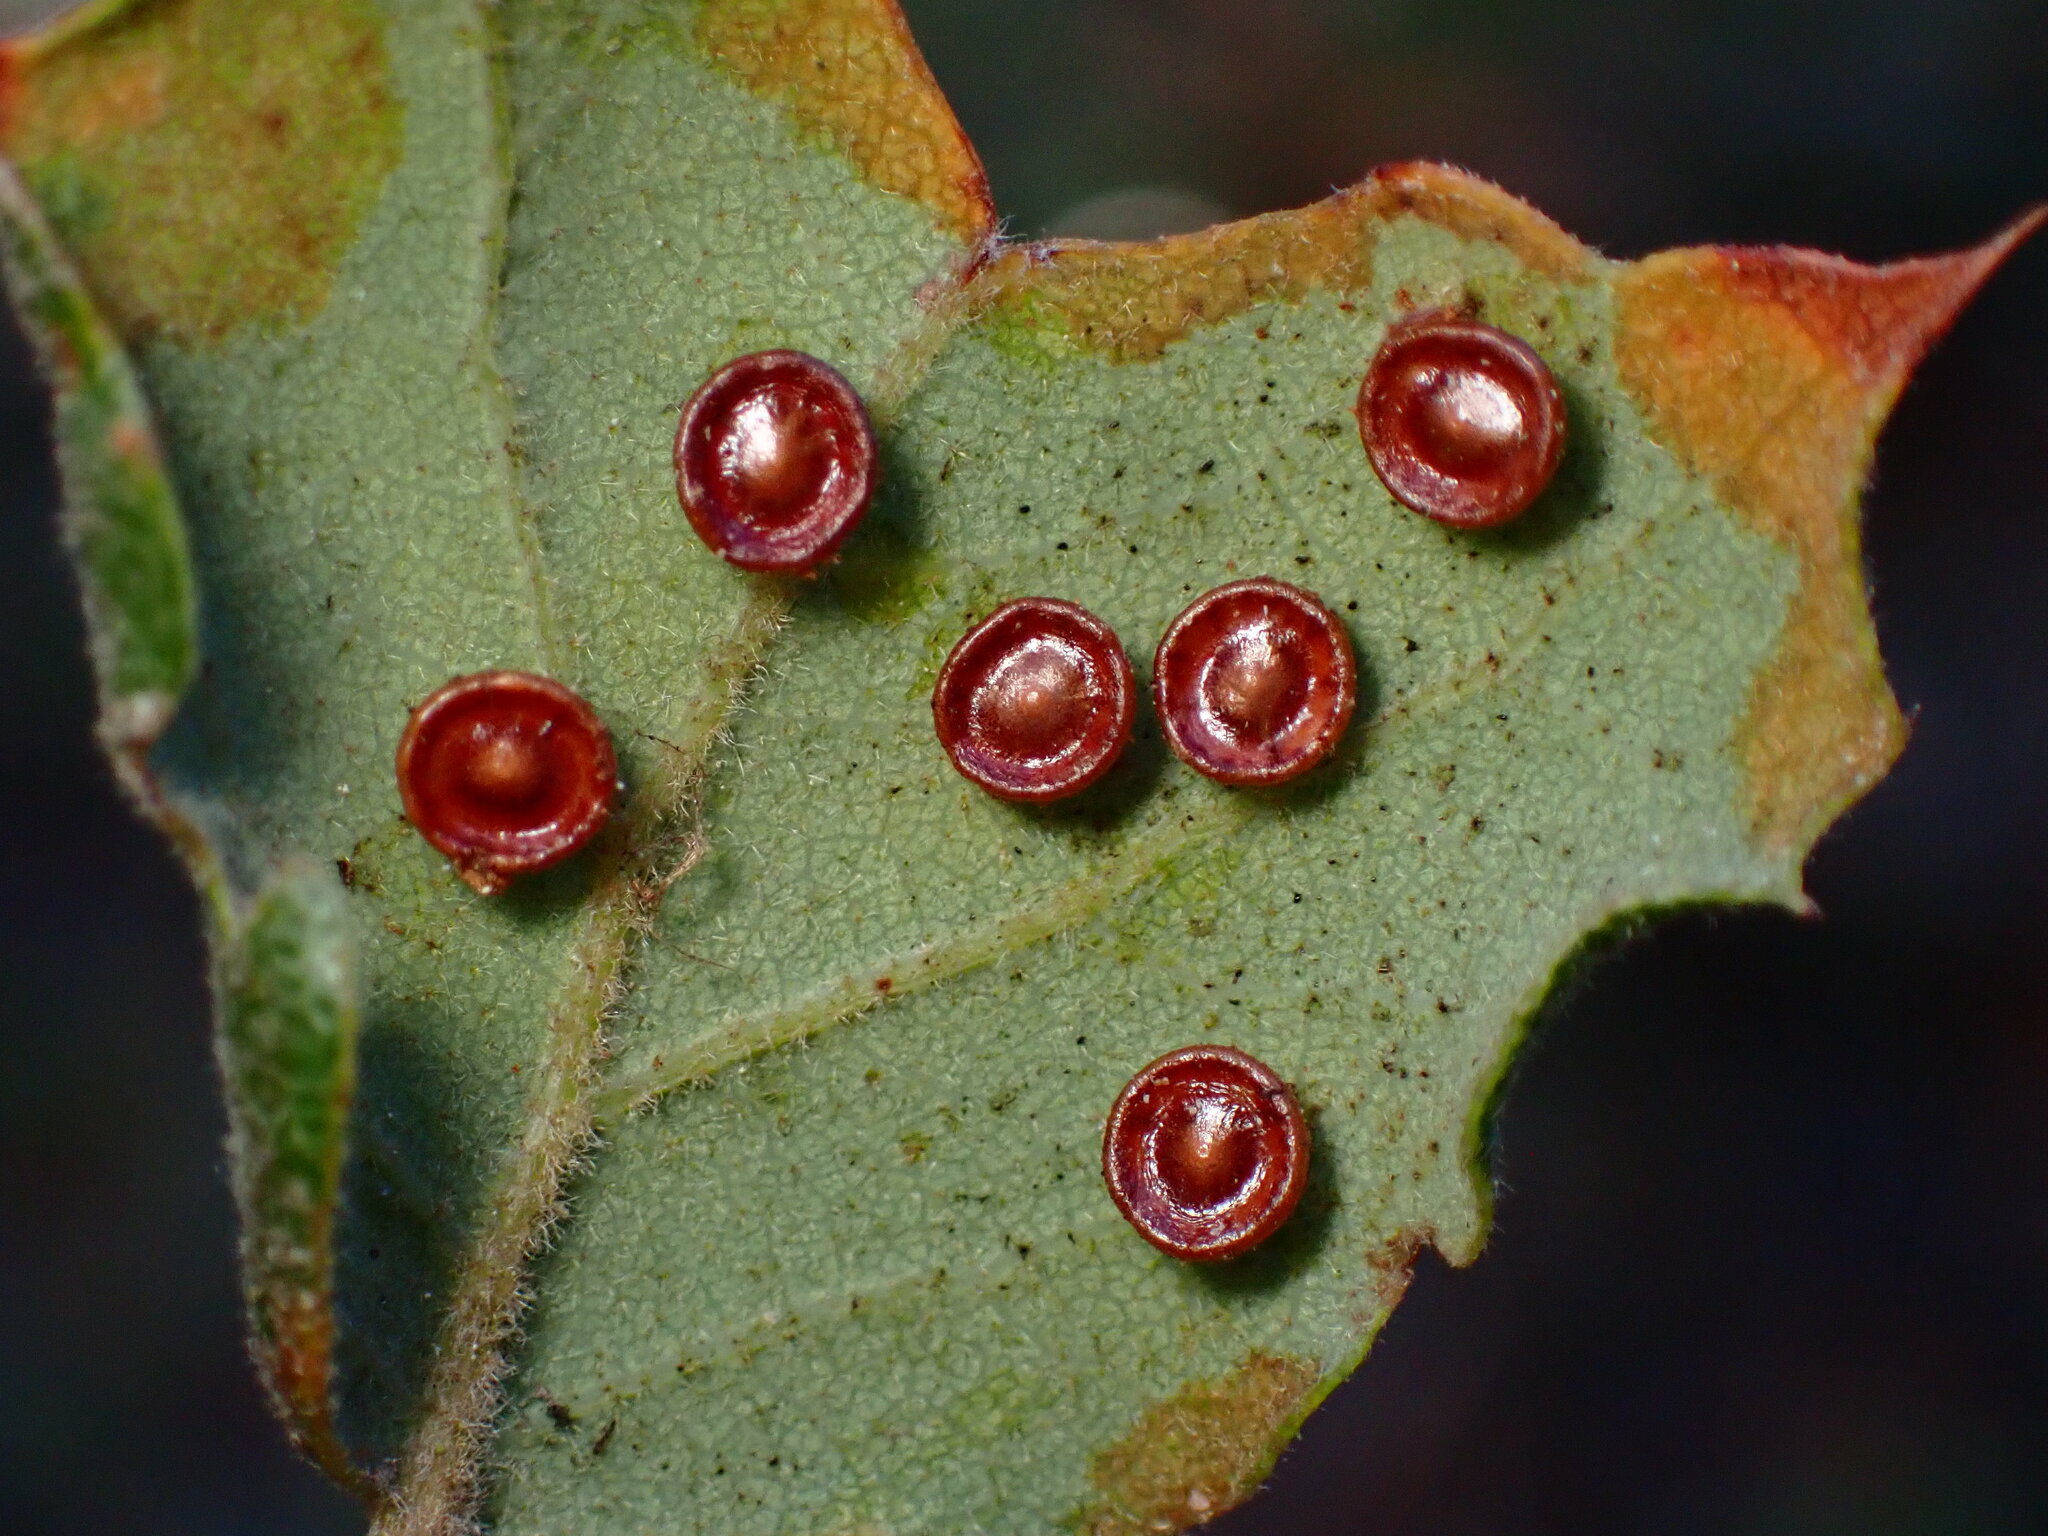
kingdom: Animalia
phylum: Arthropoda
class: Insecta
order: Hymenoptera
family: Cynipidae
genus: Andricus
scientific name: Andricus
